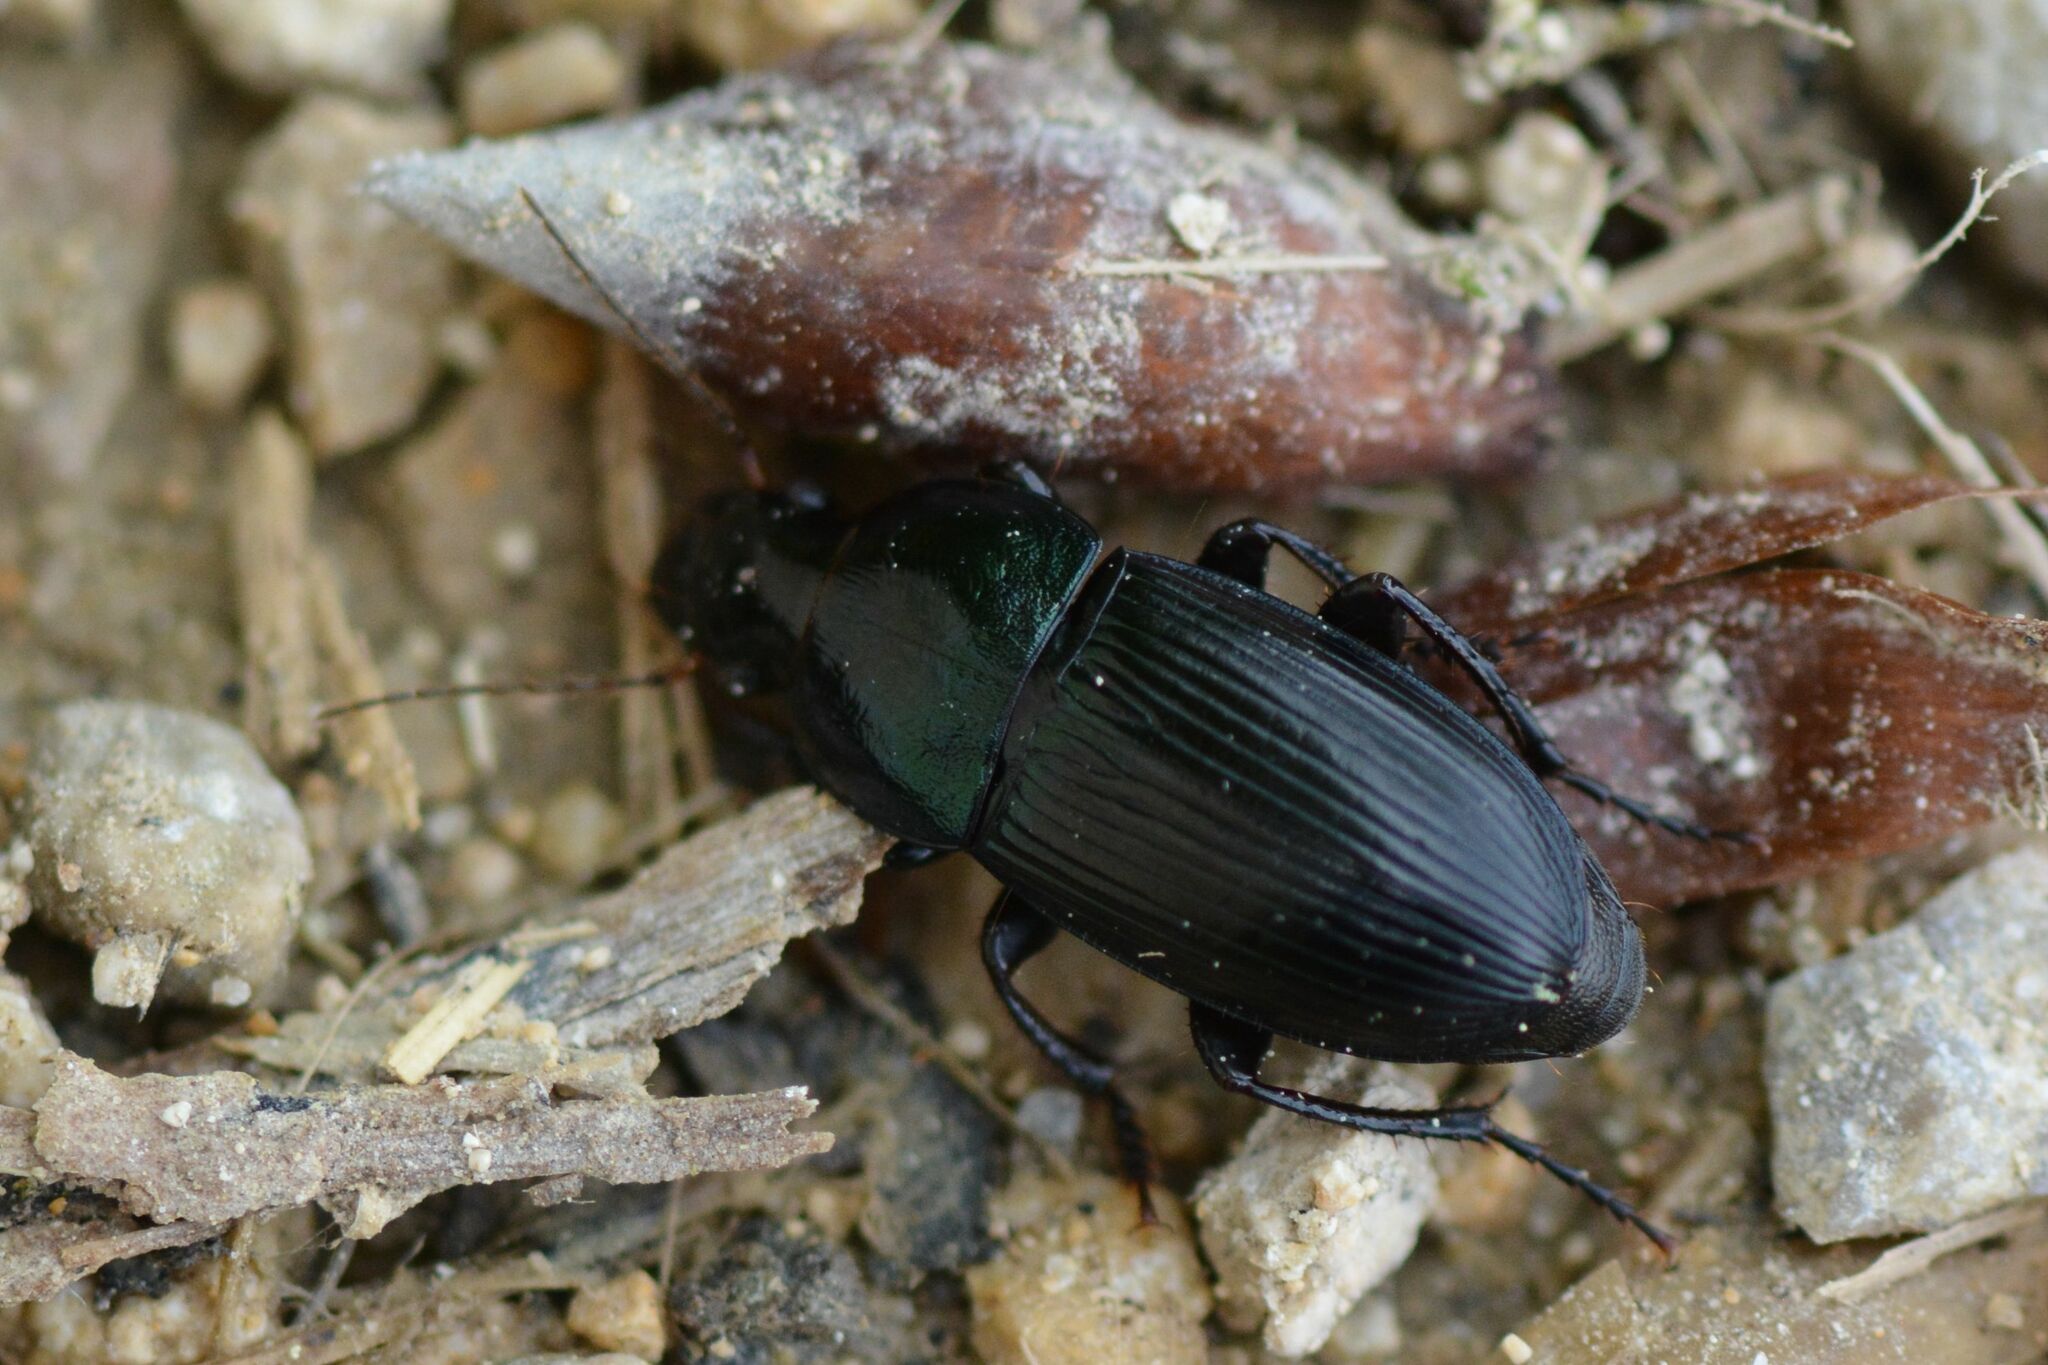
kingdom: Animalia
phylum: Arthropoda
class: Insecta
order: Coleoptera
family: Carabidae
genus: Harpalus
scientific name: Harpalus dimidiatus
